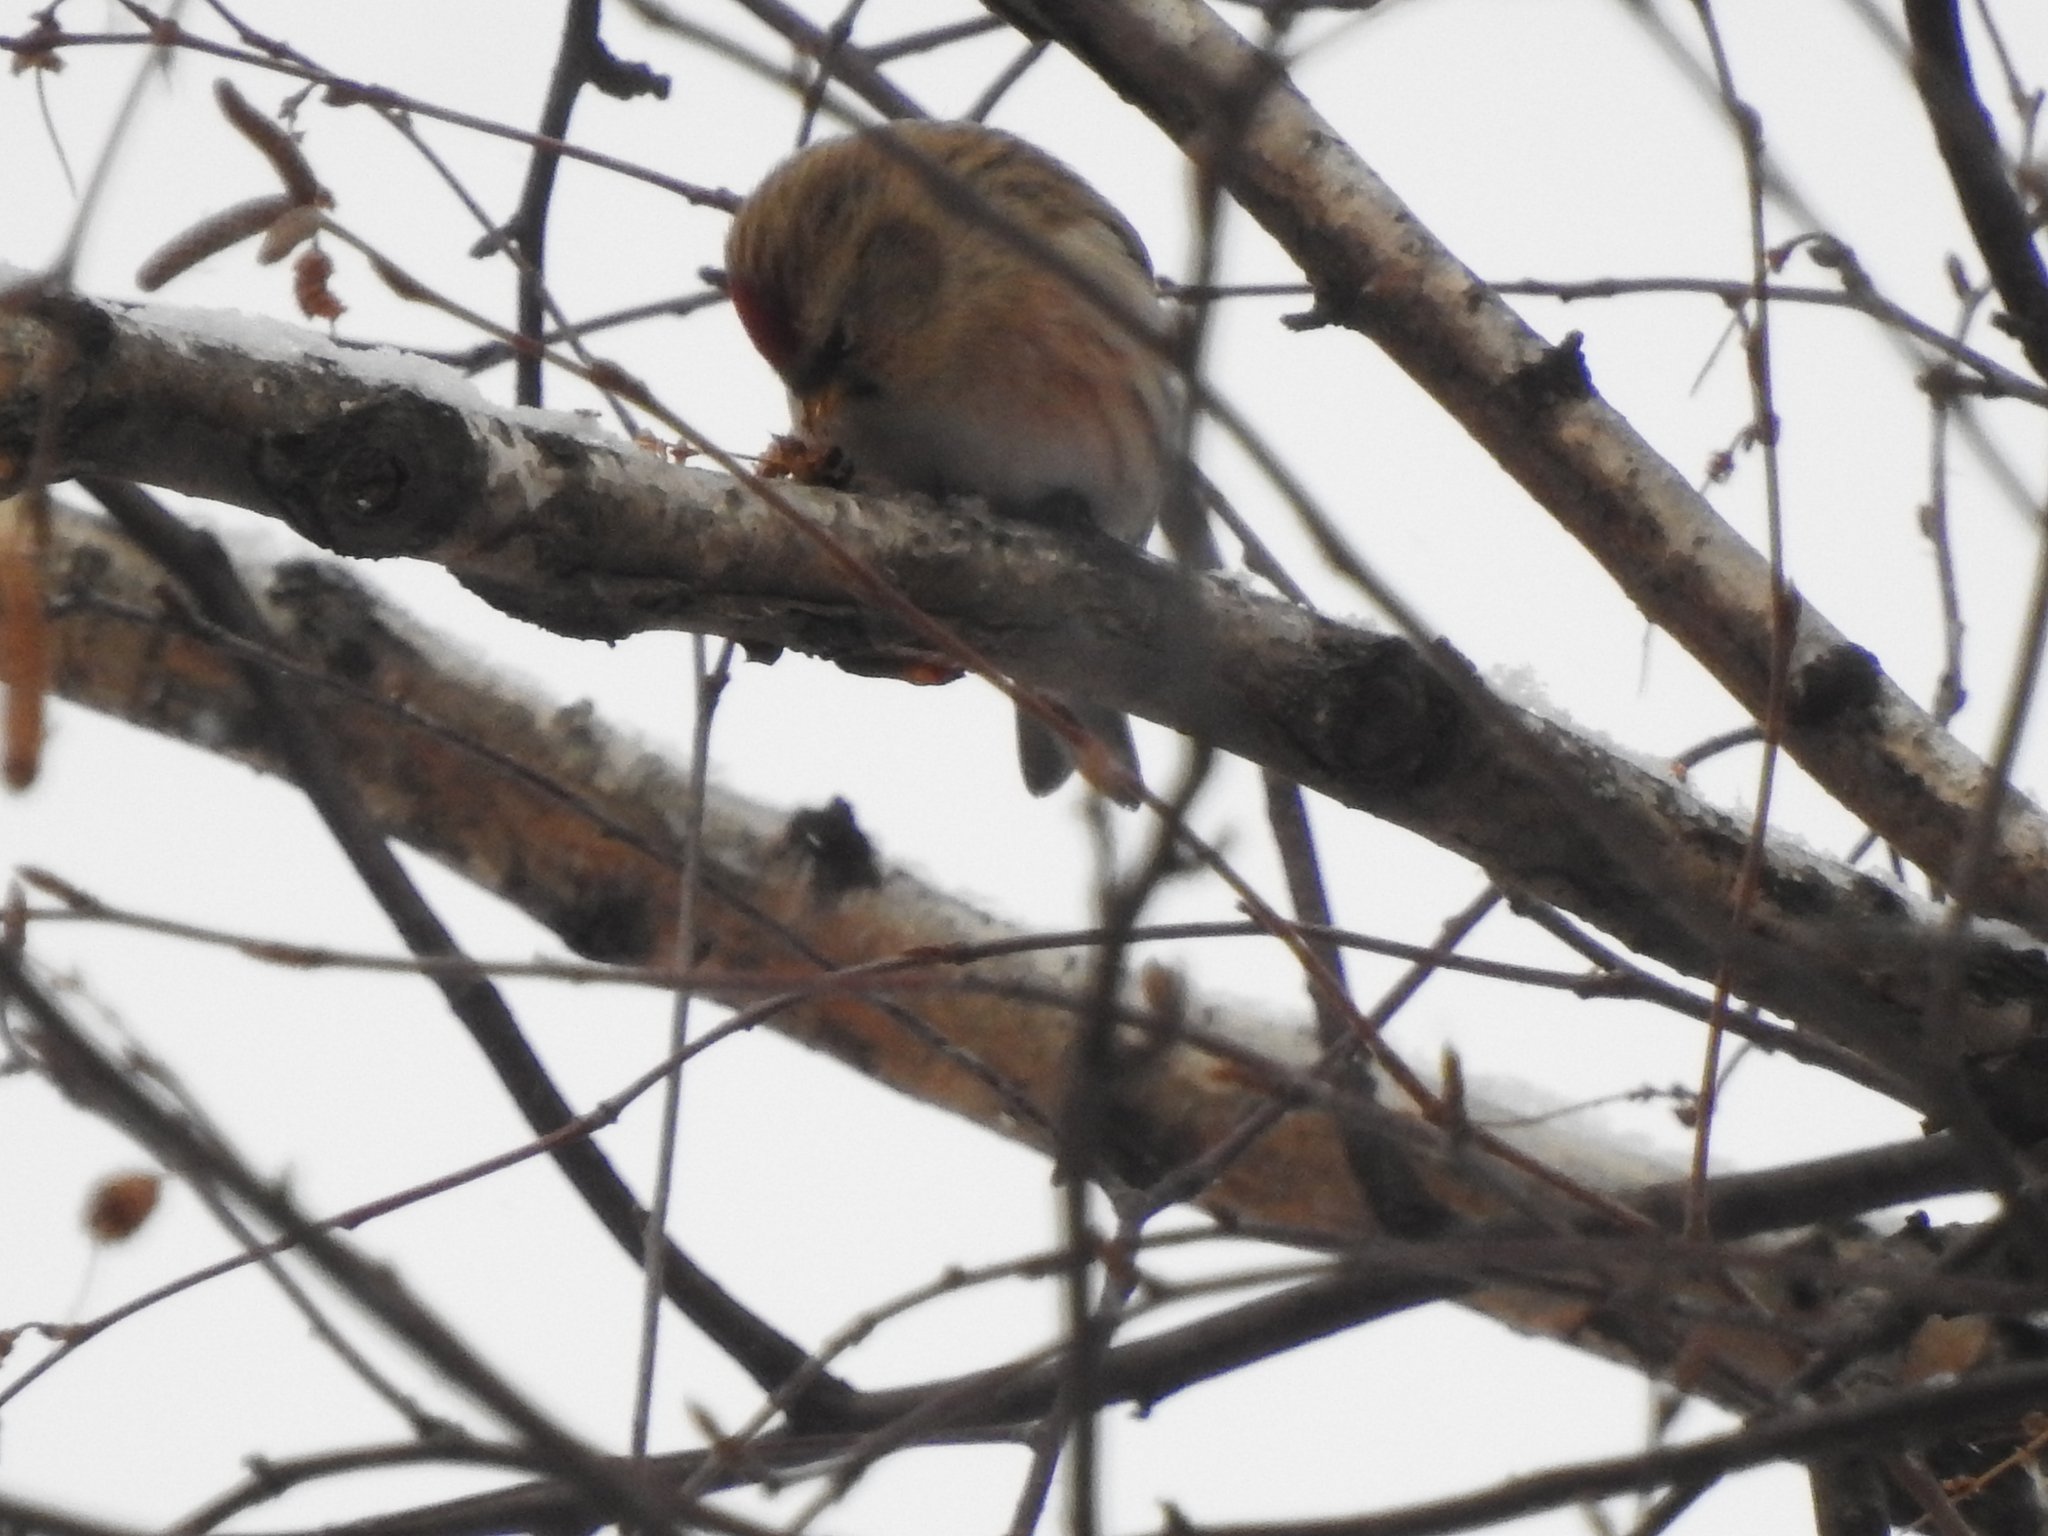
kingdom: Animalia
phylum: Chordata
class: Aves
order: Passeriformes
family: Fringillidae
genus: Acanthis
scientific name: Acanthis flammea
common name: Common redpoll
